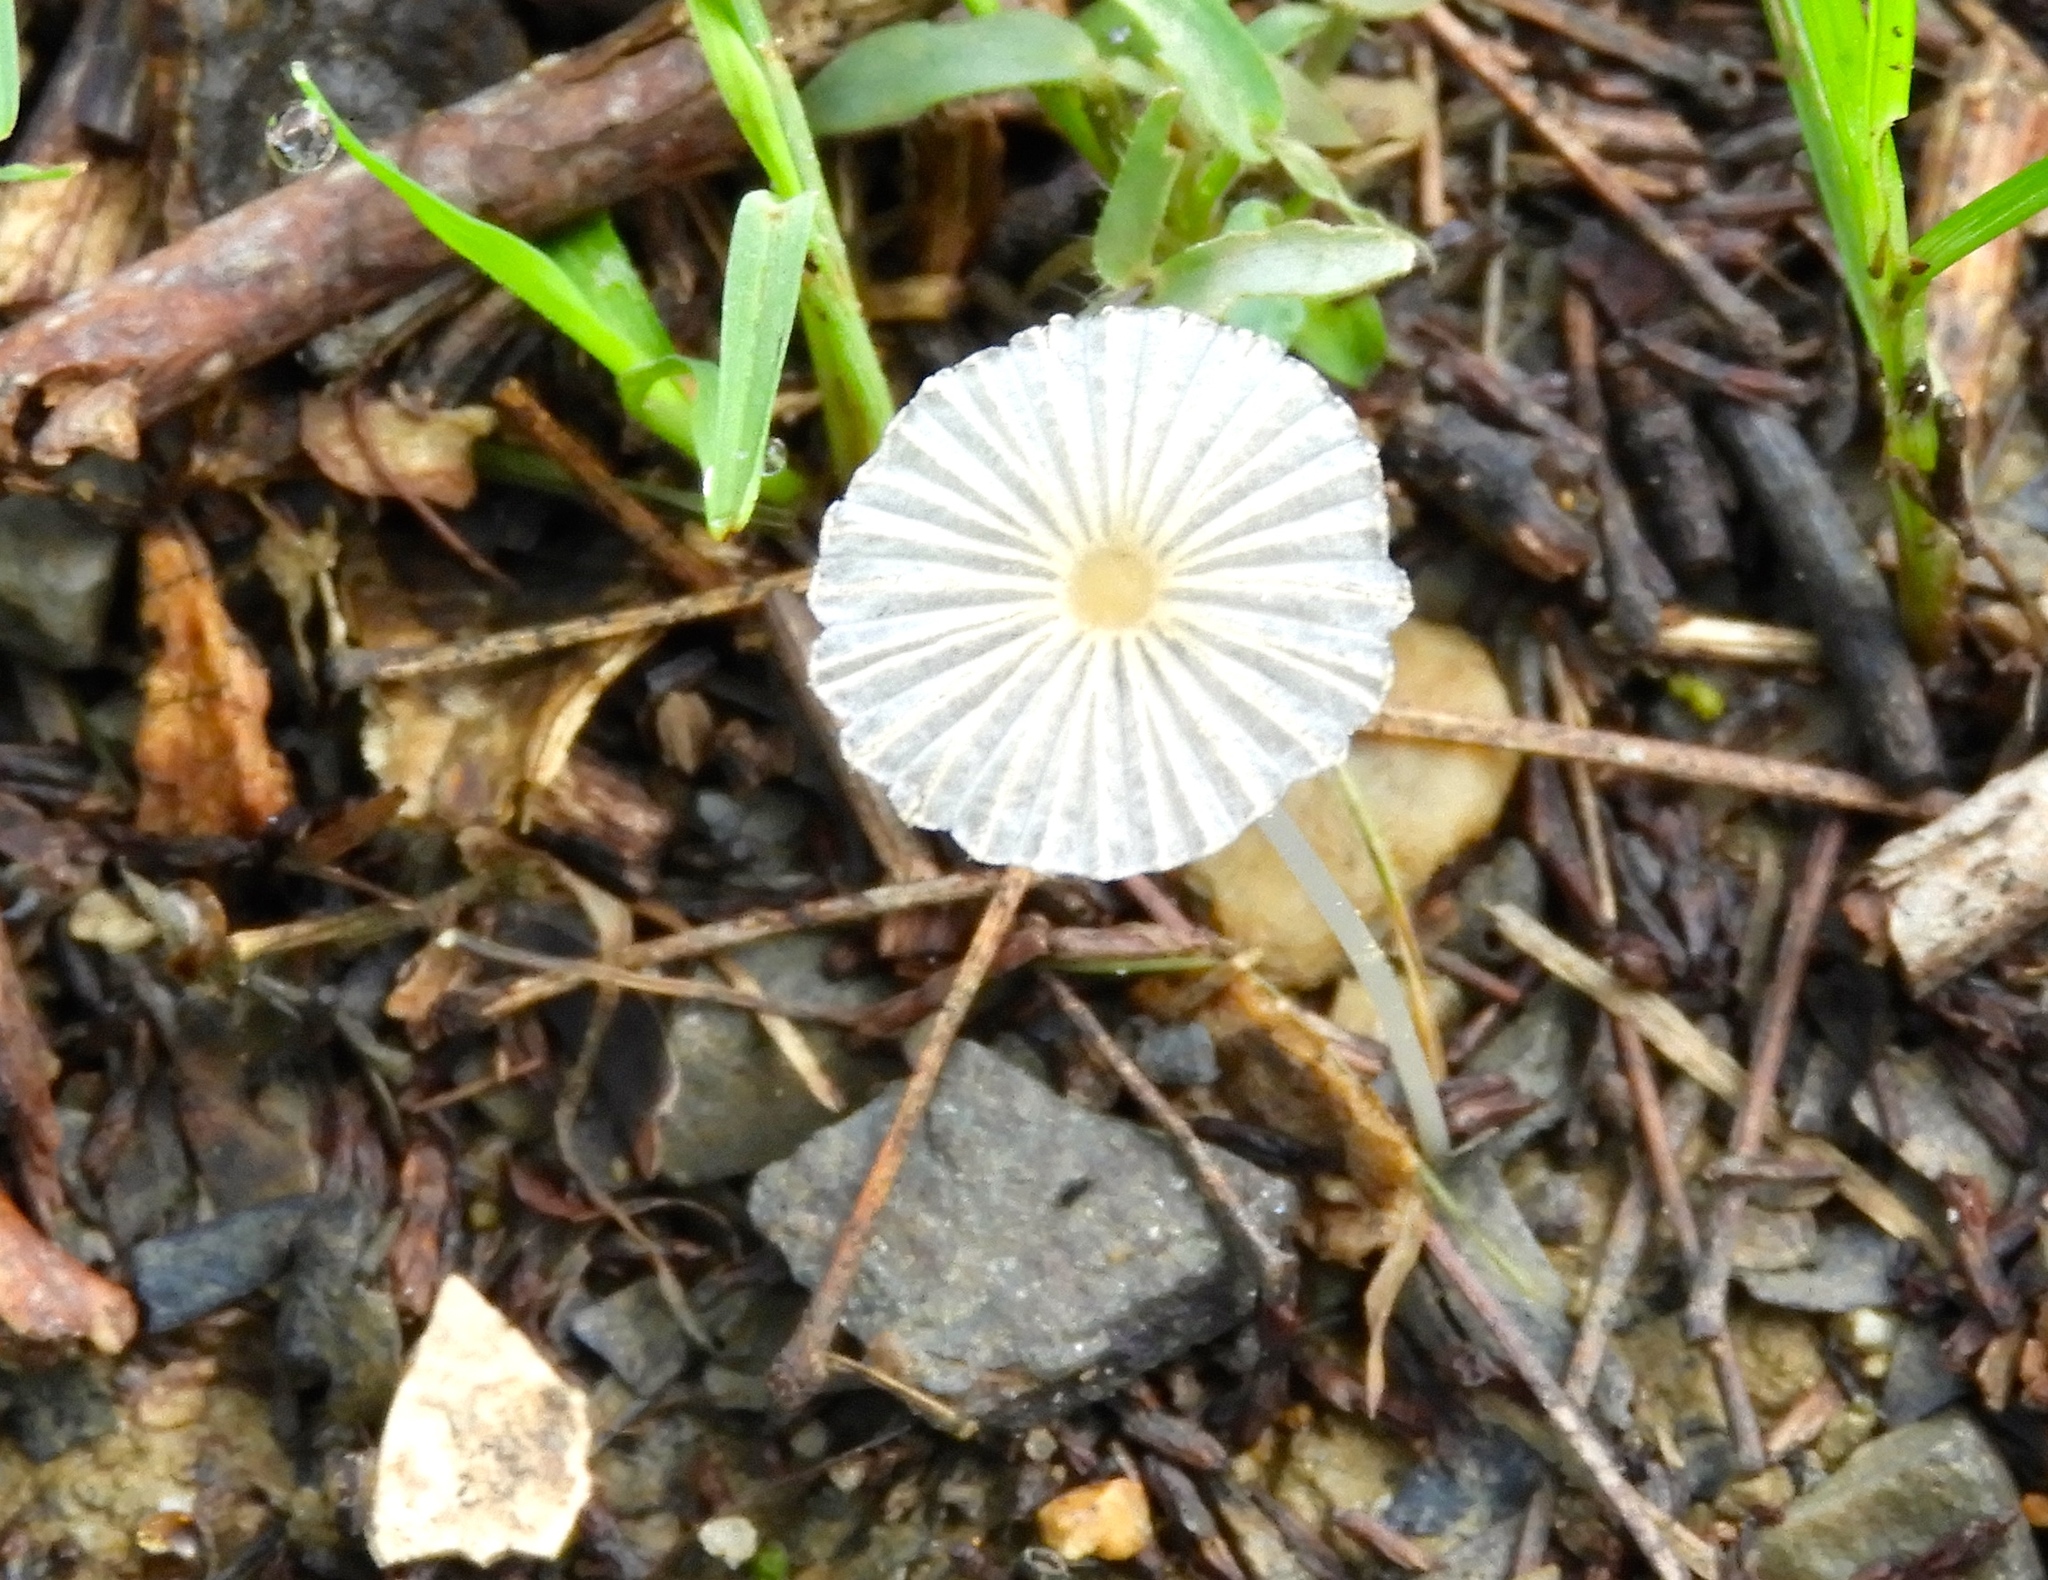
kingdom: Fungi
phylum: Basidiomycota
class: Agaricomycetes
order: Agaricales
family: Psathyrellaceae
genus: Parasola
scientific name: Parasola
